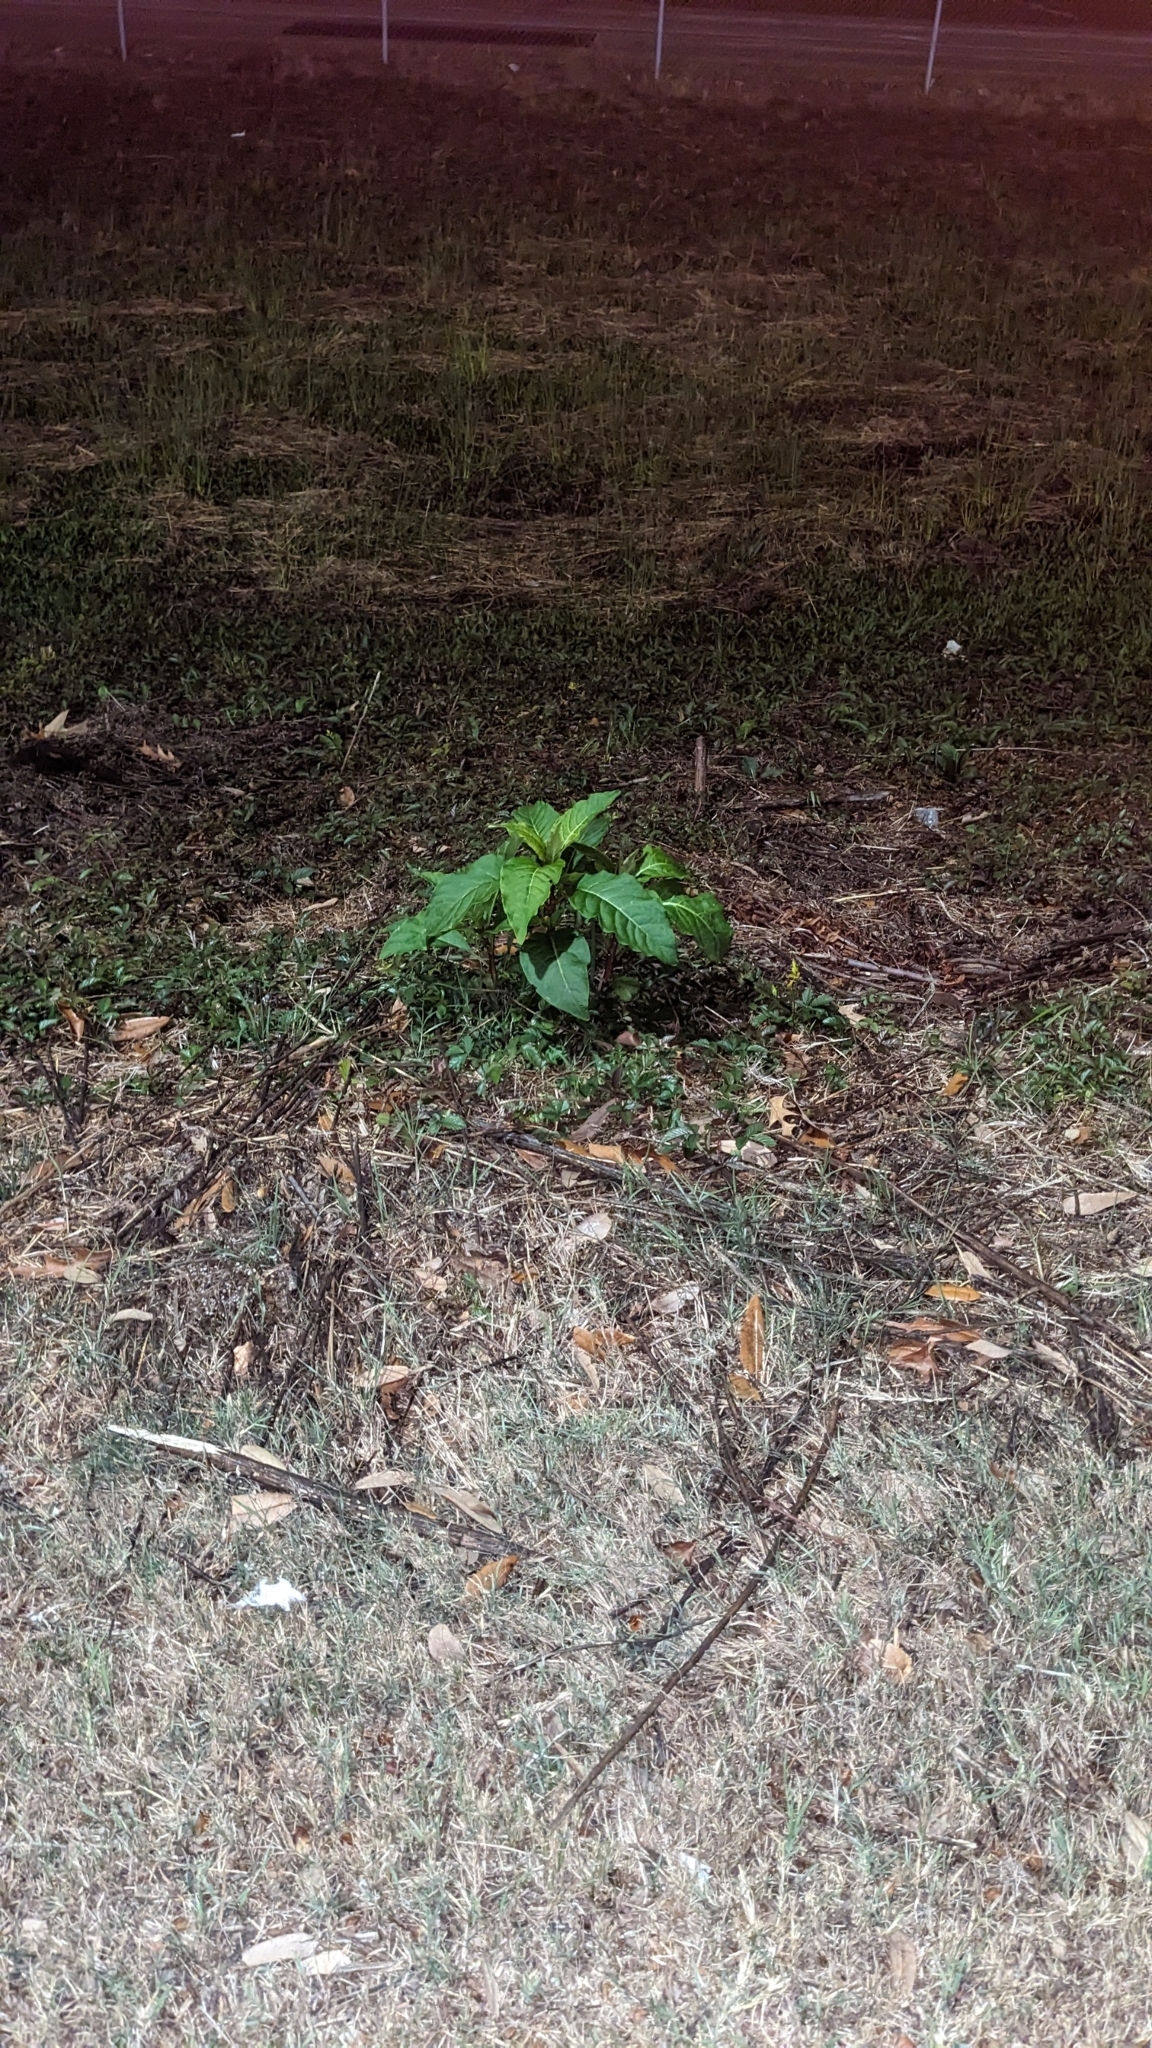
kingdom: Plantae
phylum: Tracheophyta
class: Magnoliopsida
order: Caryophyllales
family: Phytolaccaceae
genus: Phytolacca
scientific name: Phytolacca americana
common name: American pokeweed
